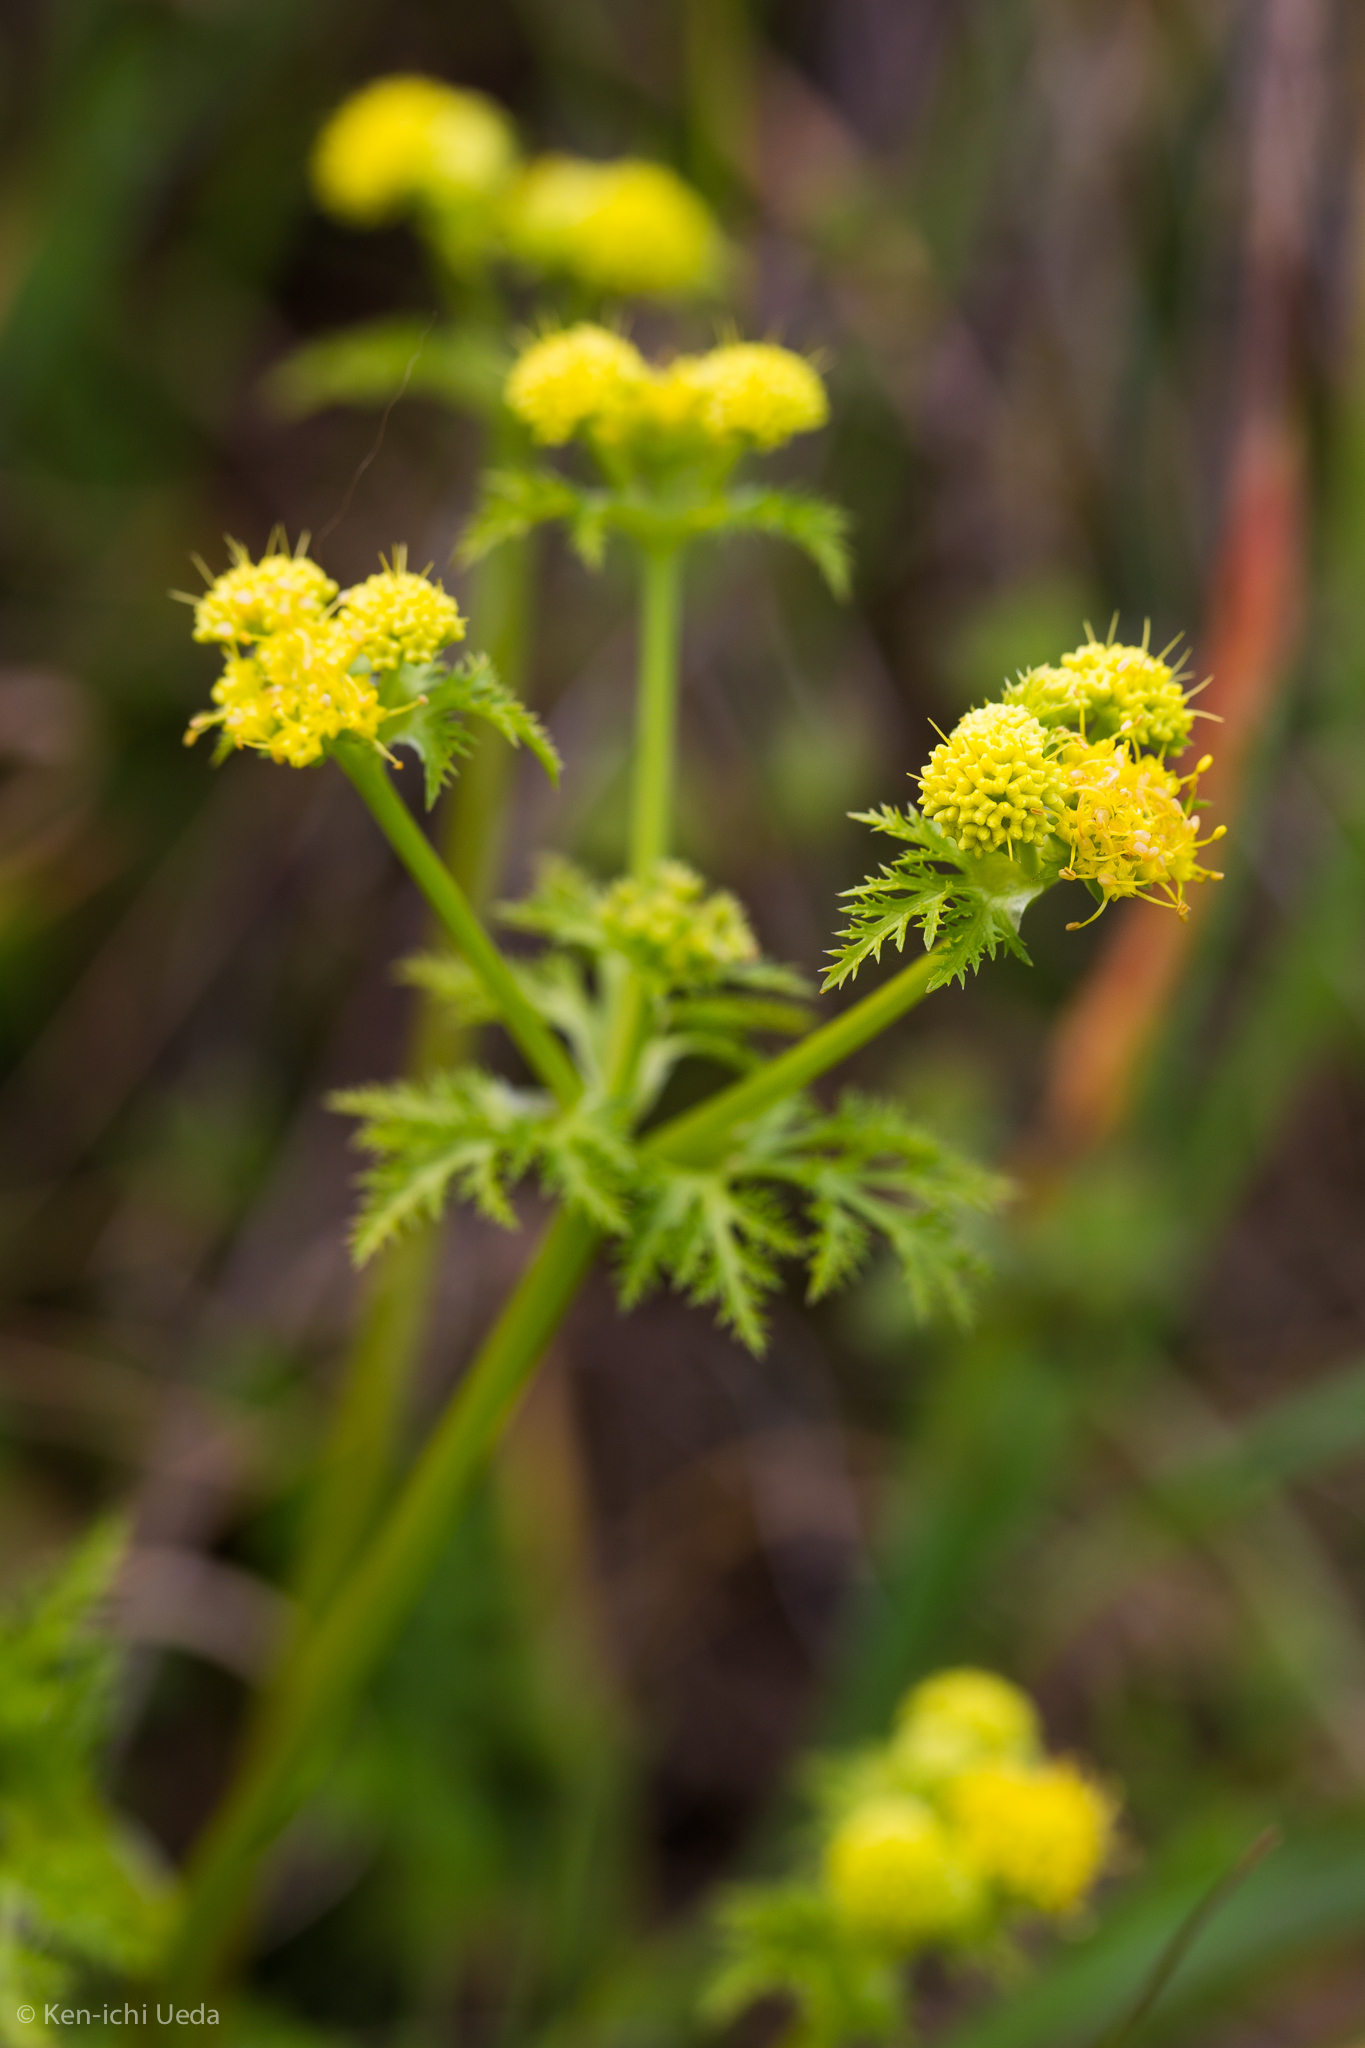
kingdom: Plantae
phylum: Tracheophyta
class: Magnoliopsida
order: Apiales
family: Apiaceae
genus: Sanicula
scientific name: Sanicula tuberosa
